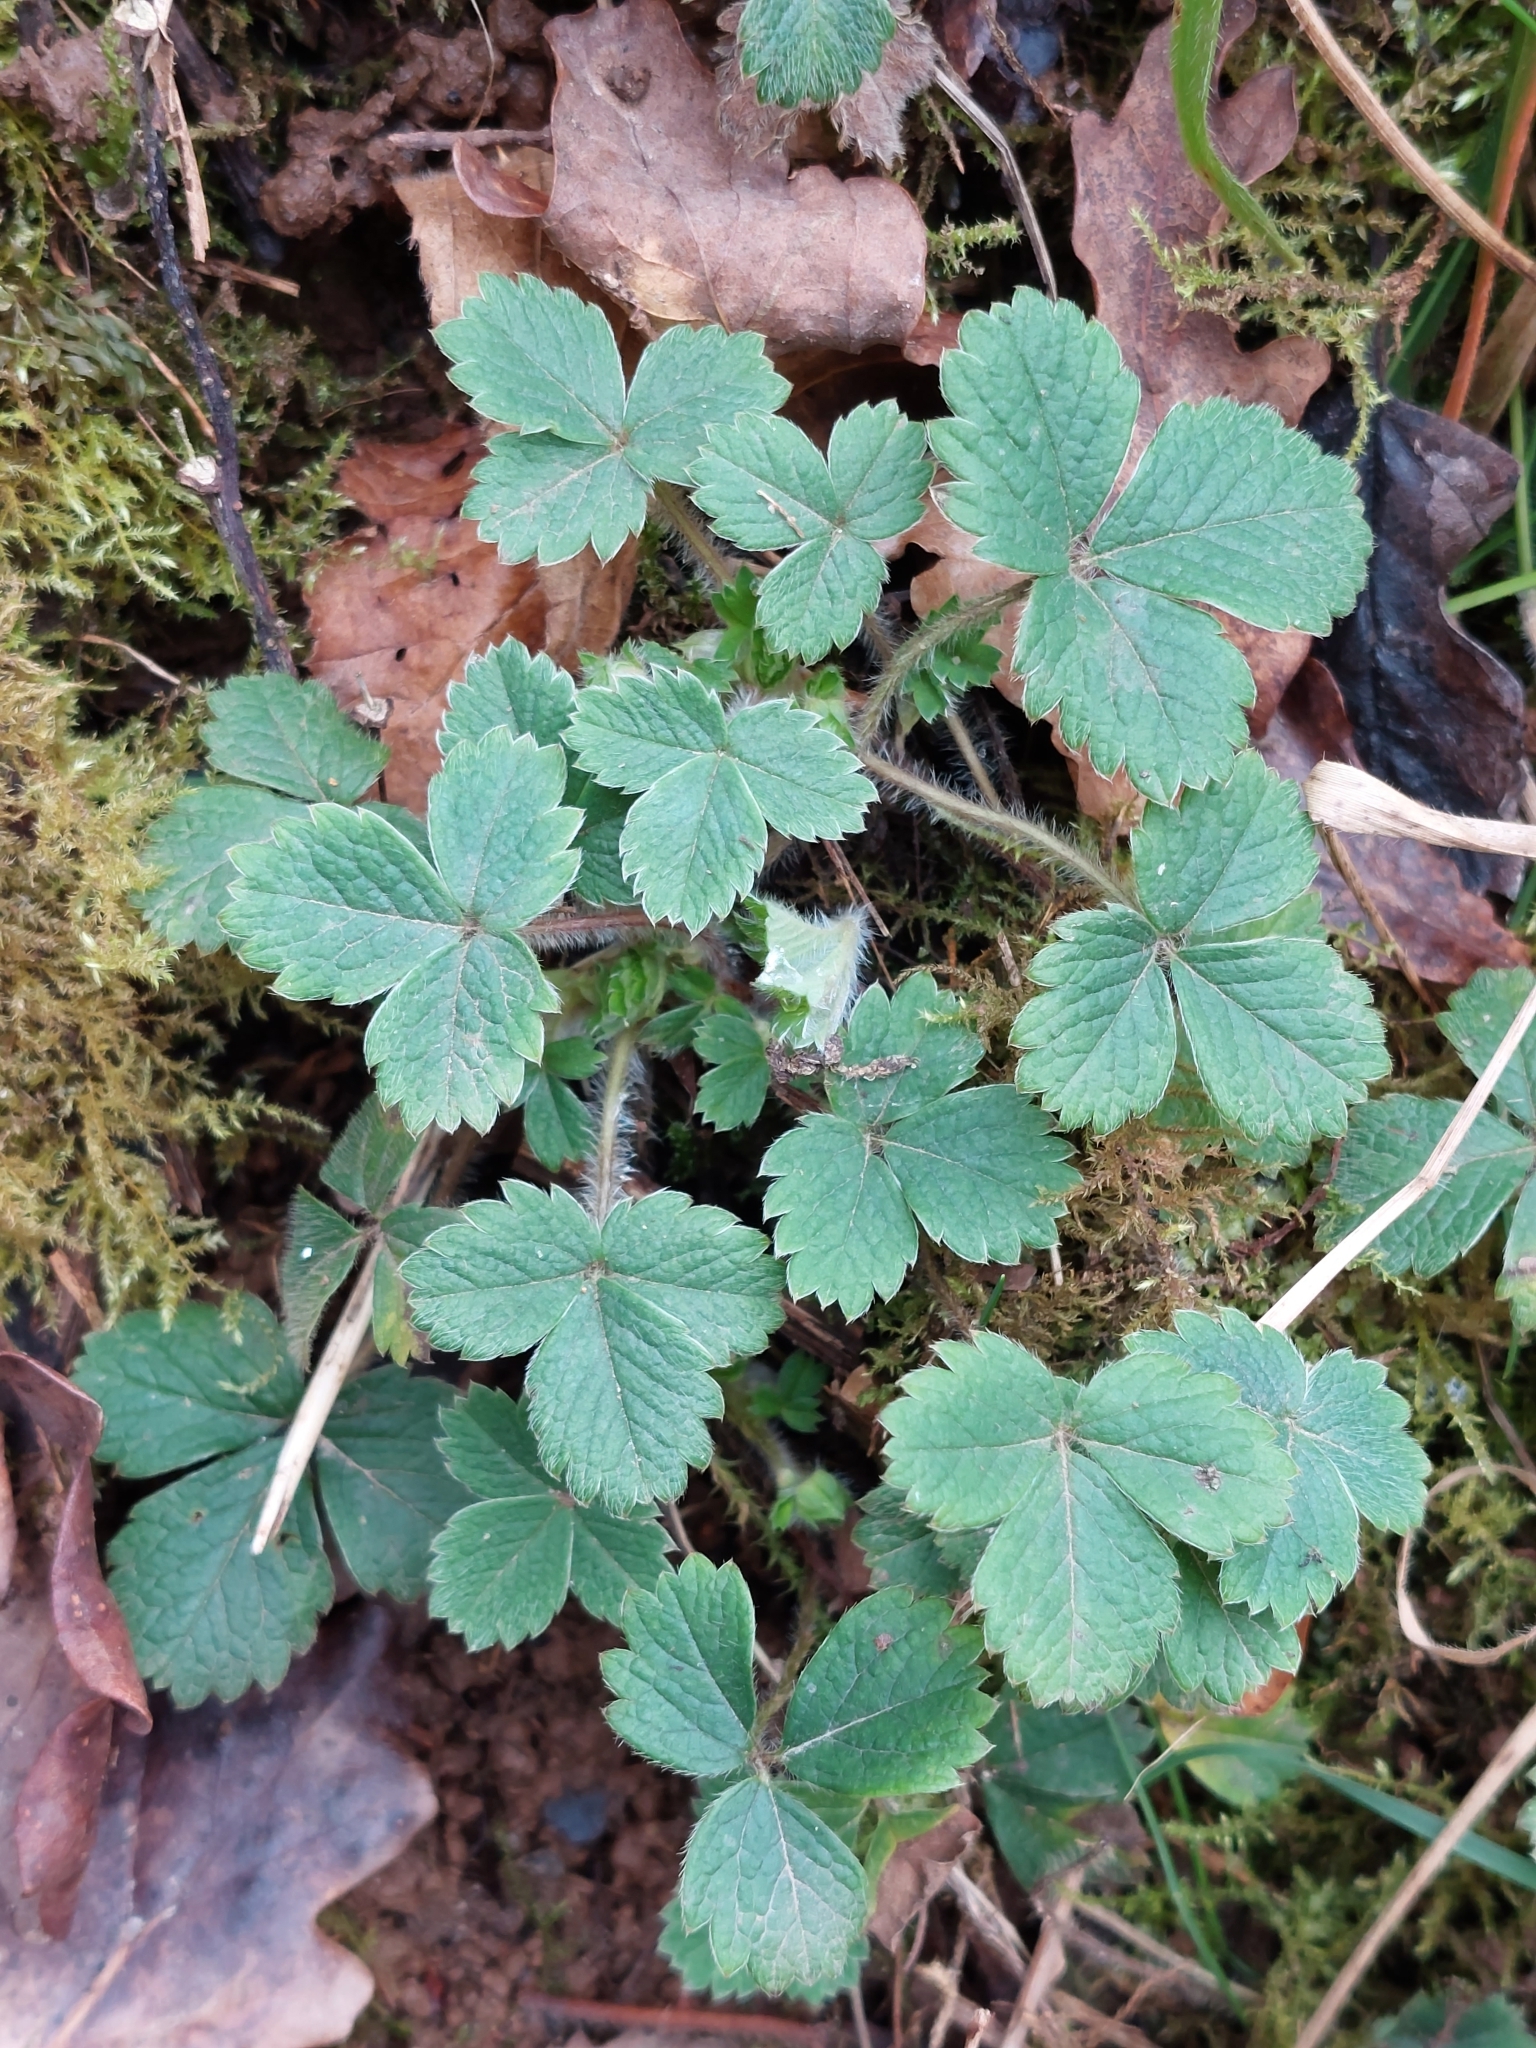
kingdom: Plantae
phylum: Tracheophyta
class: Magnoliopsida
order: Rosales
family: Rosaceae
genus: Potentilla
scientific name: Potentilla sterilis
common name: Barren strawberry
